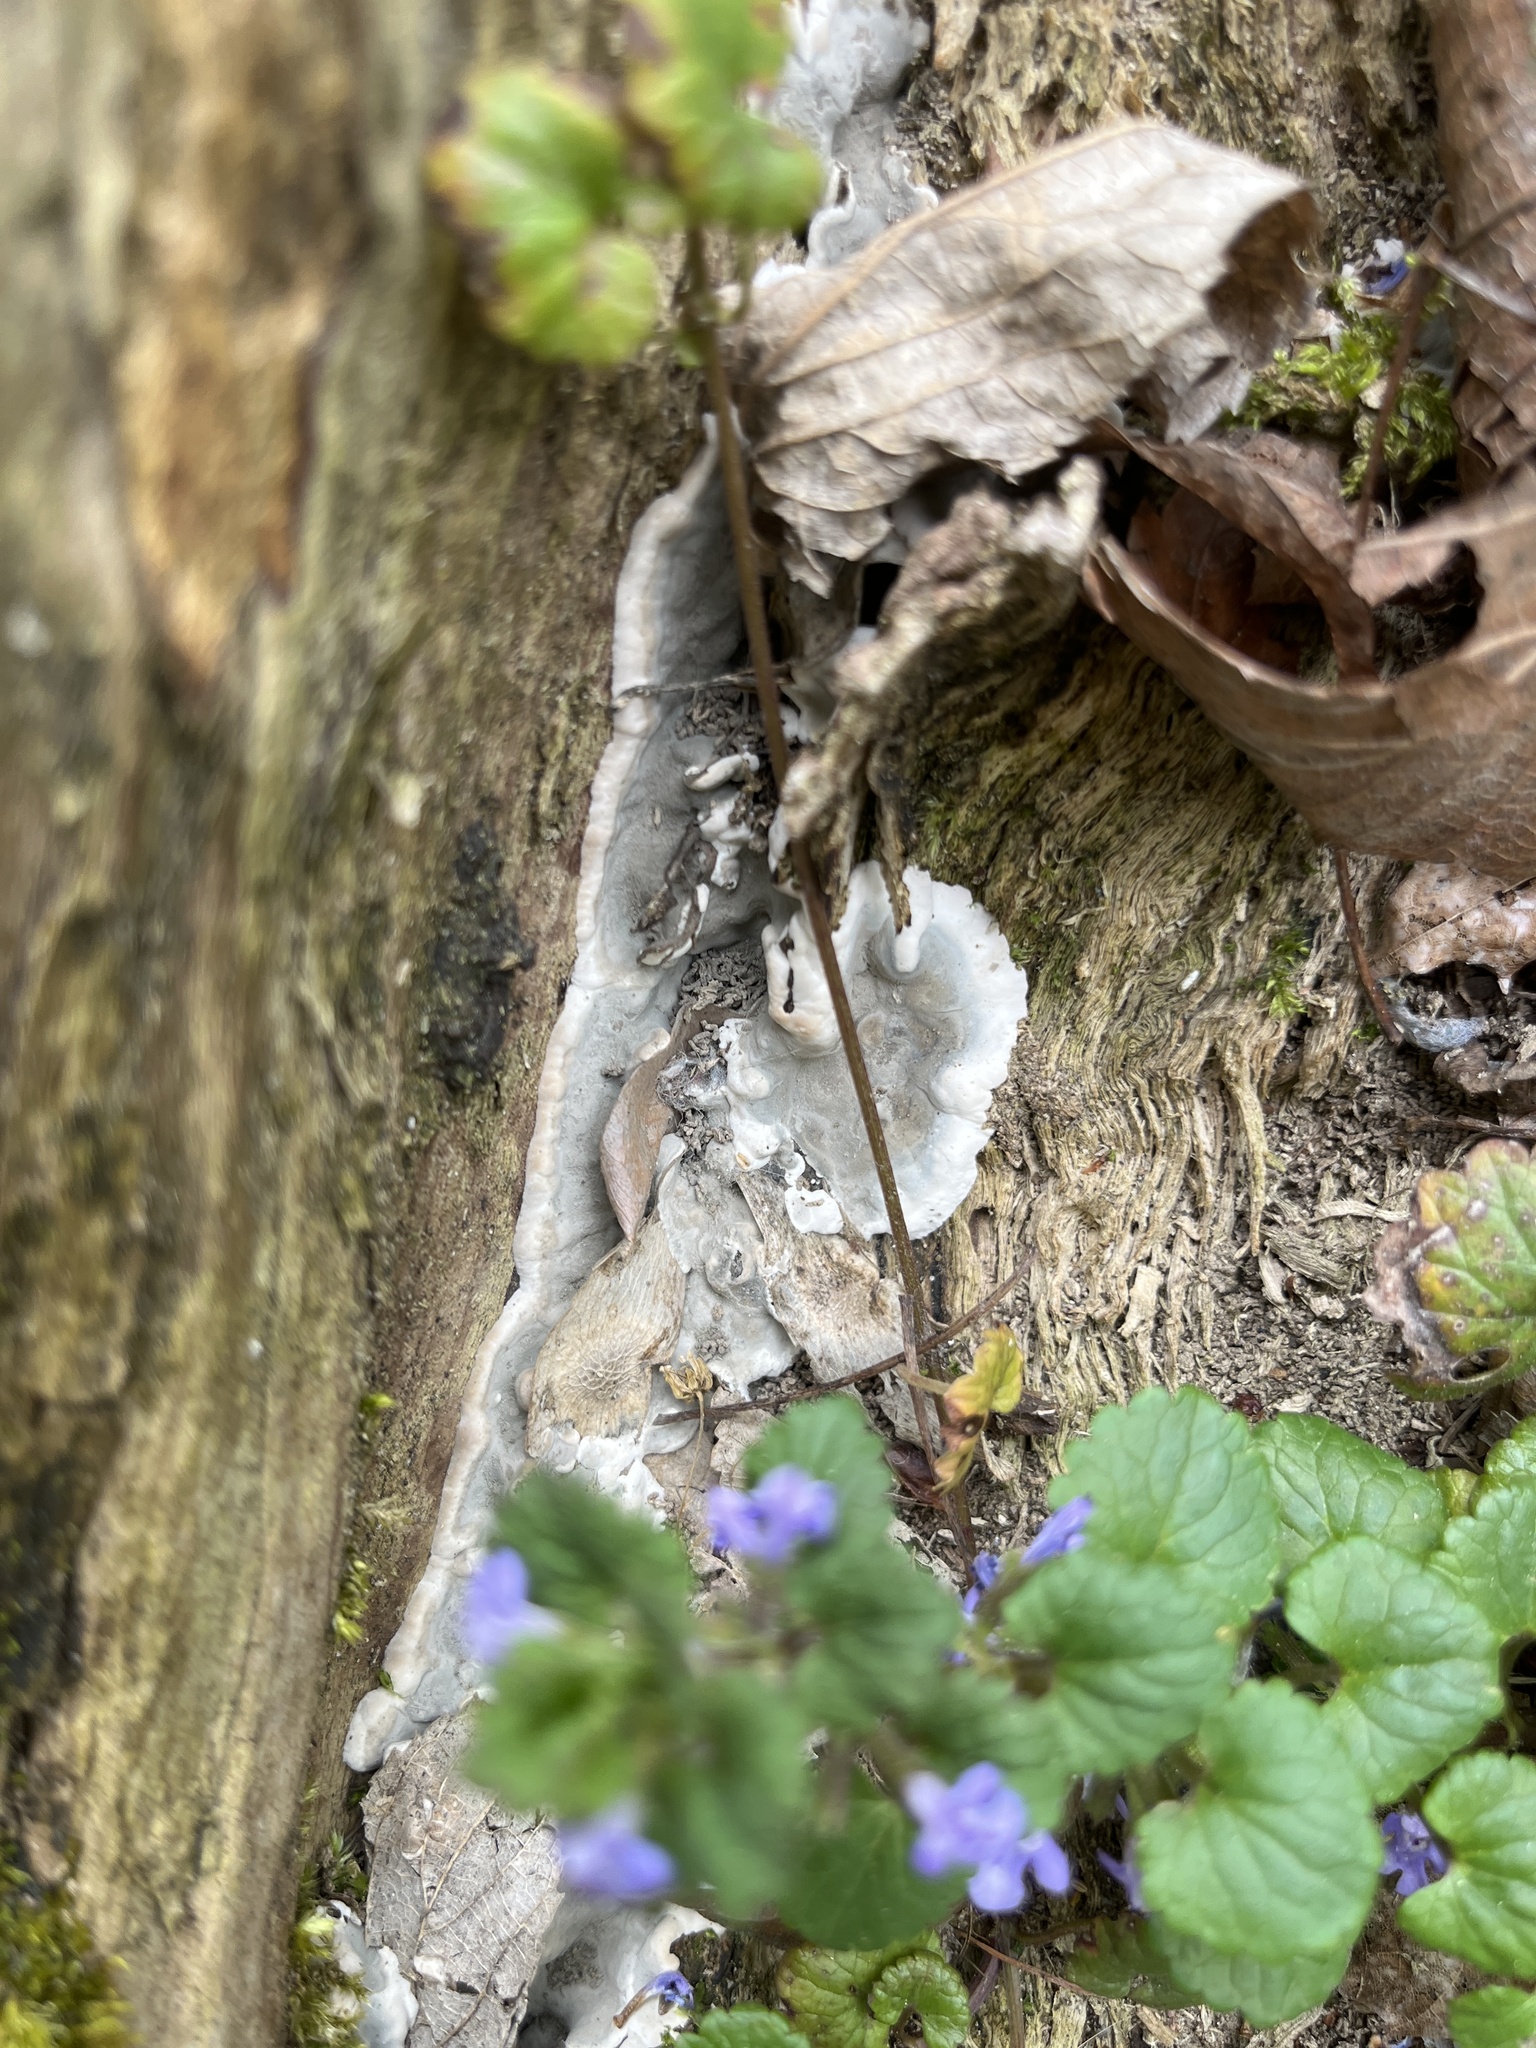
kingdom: Fungi
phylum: Ascomycota
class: Sordariomycetes
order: Xylariales
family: Xylariaceae
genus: Kretzschmaria
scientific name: Kretzschmaria deusta
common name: Brittle cinder
